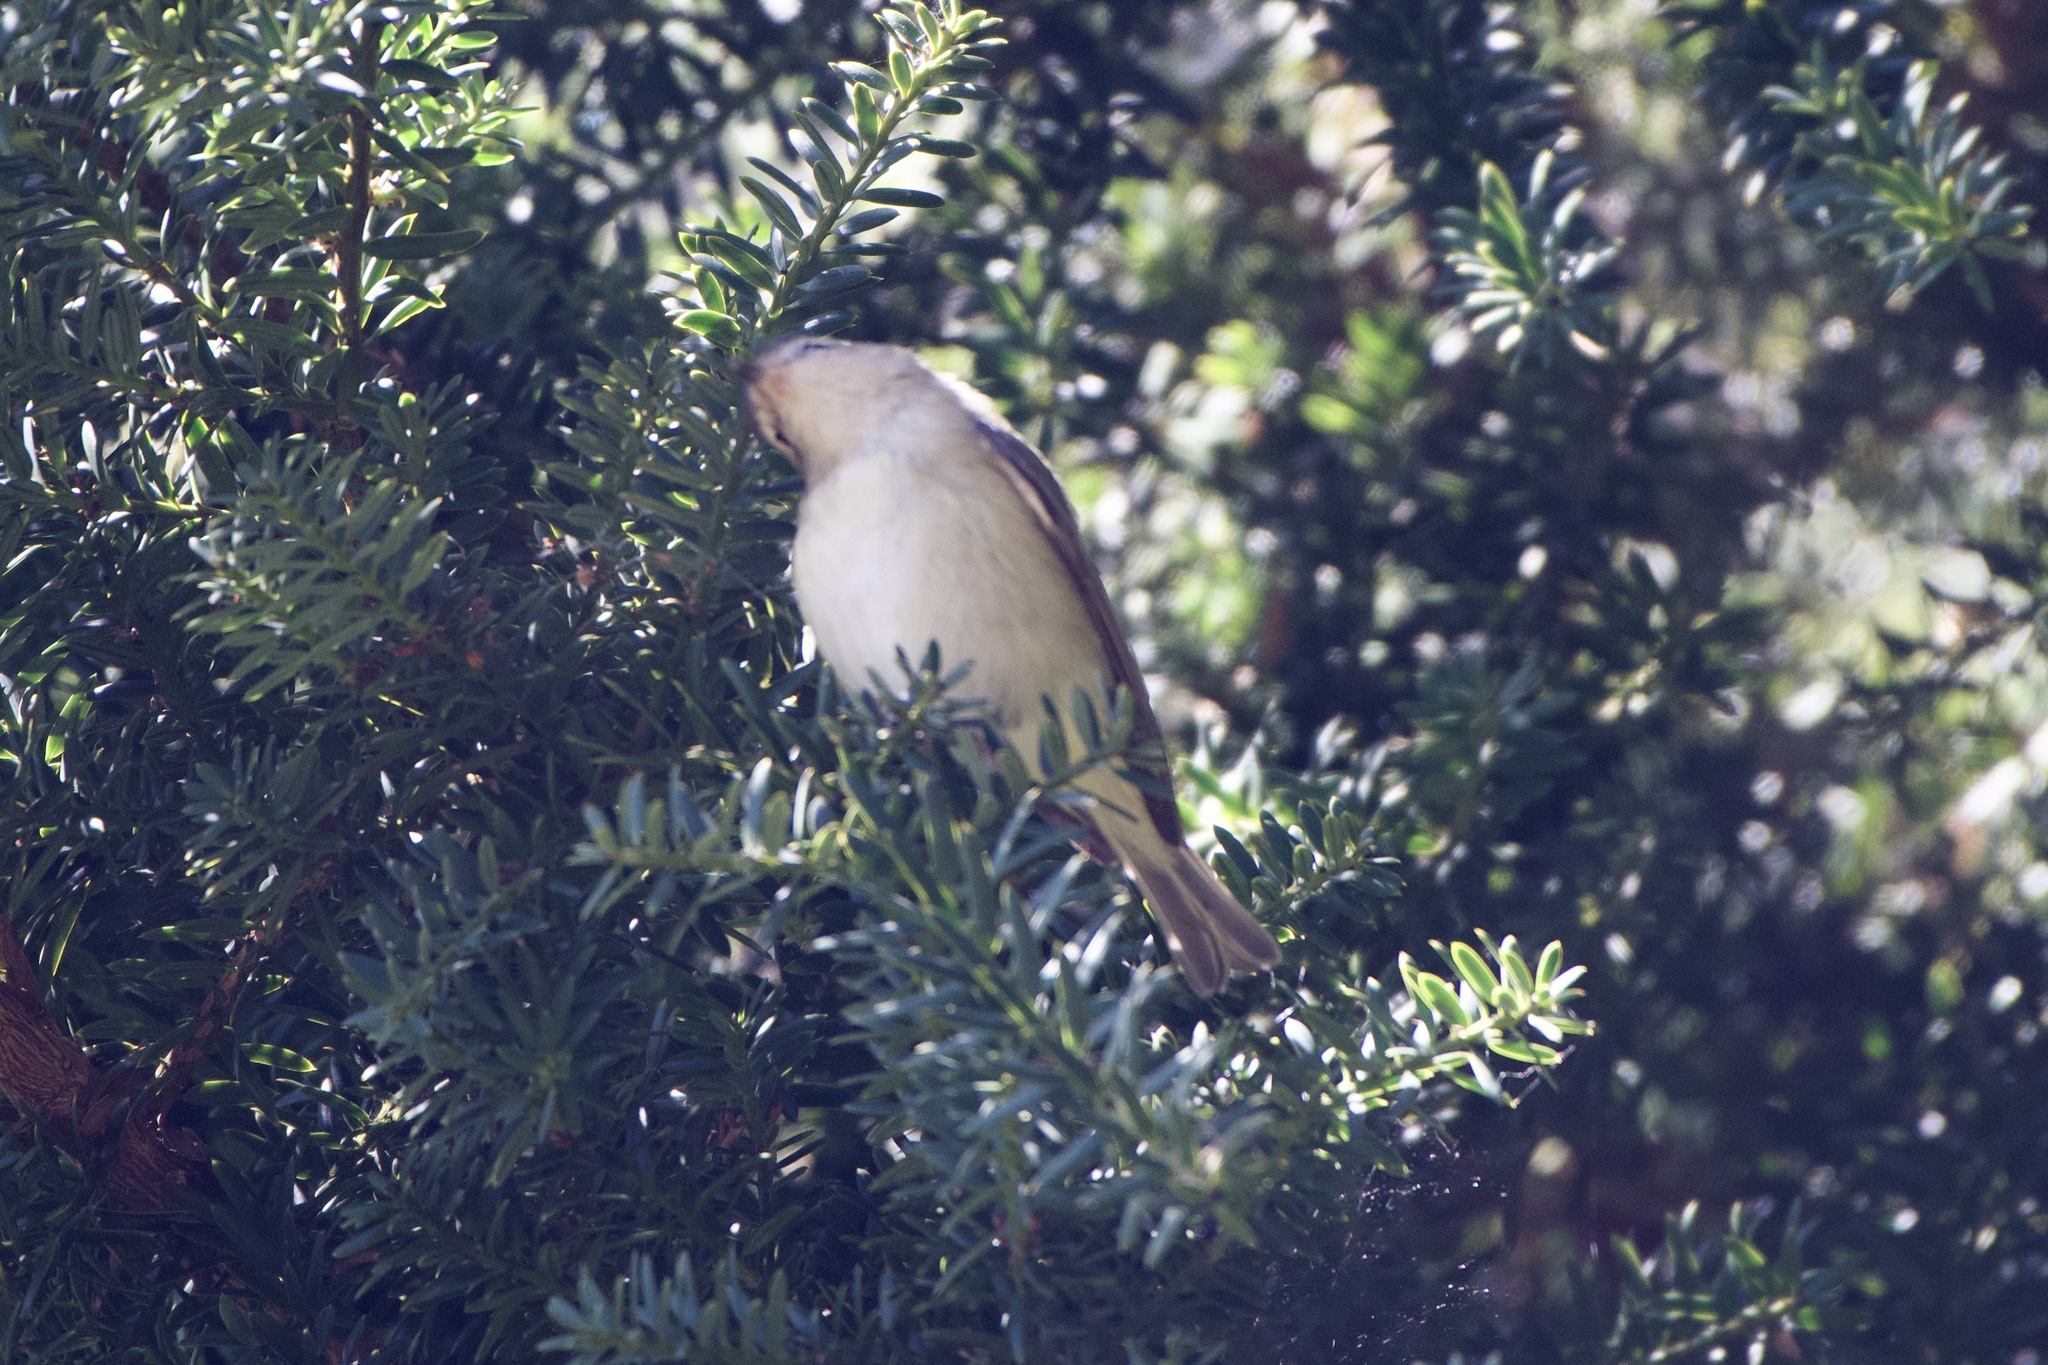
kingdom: Animalia
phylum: Chordata
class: Aves
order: Passeriformes
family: Vireonidae
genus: Vireo
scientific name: Vireo gilvus
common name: Warbling vireo
